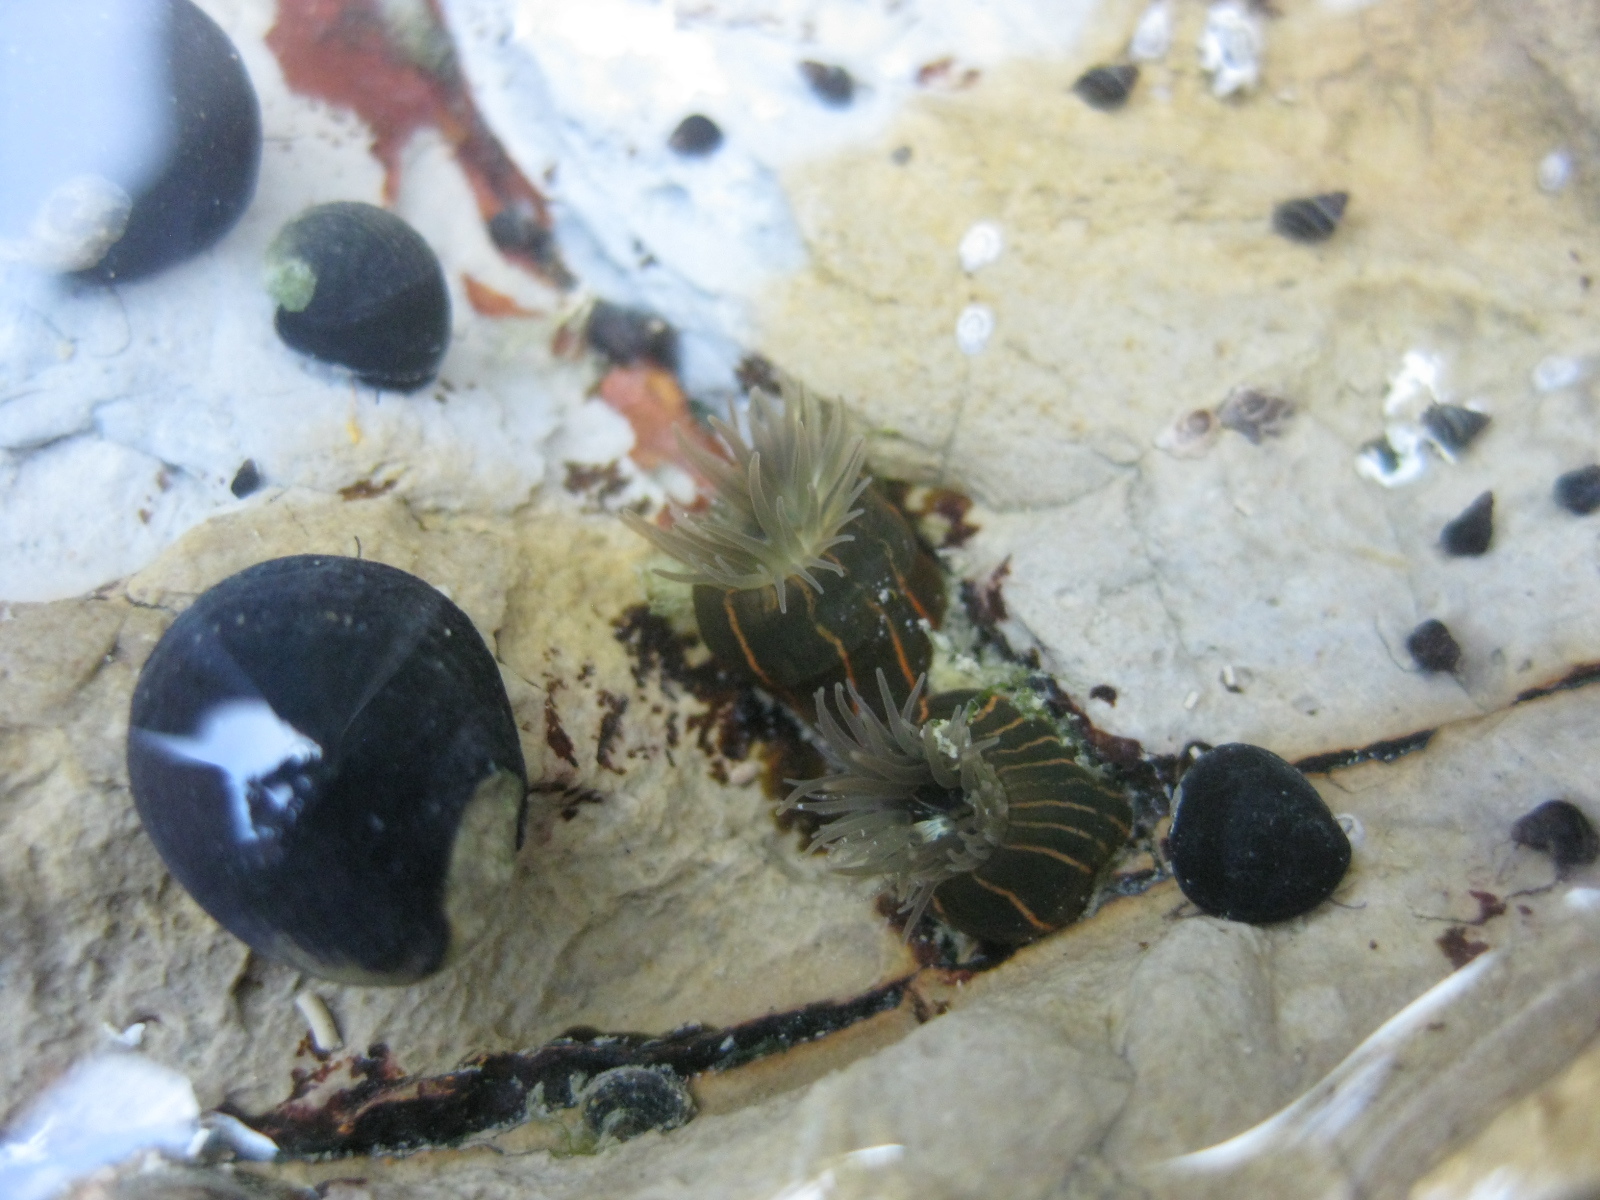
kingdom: Animalia
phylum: Cnidaria
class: Anthozoa
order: Actiniaria
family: Diadumenidae
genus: Diadumene
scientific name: Diadumene lineata
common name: Orange-striped anemone
